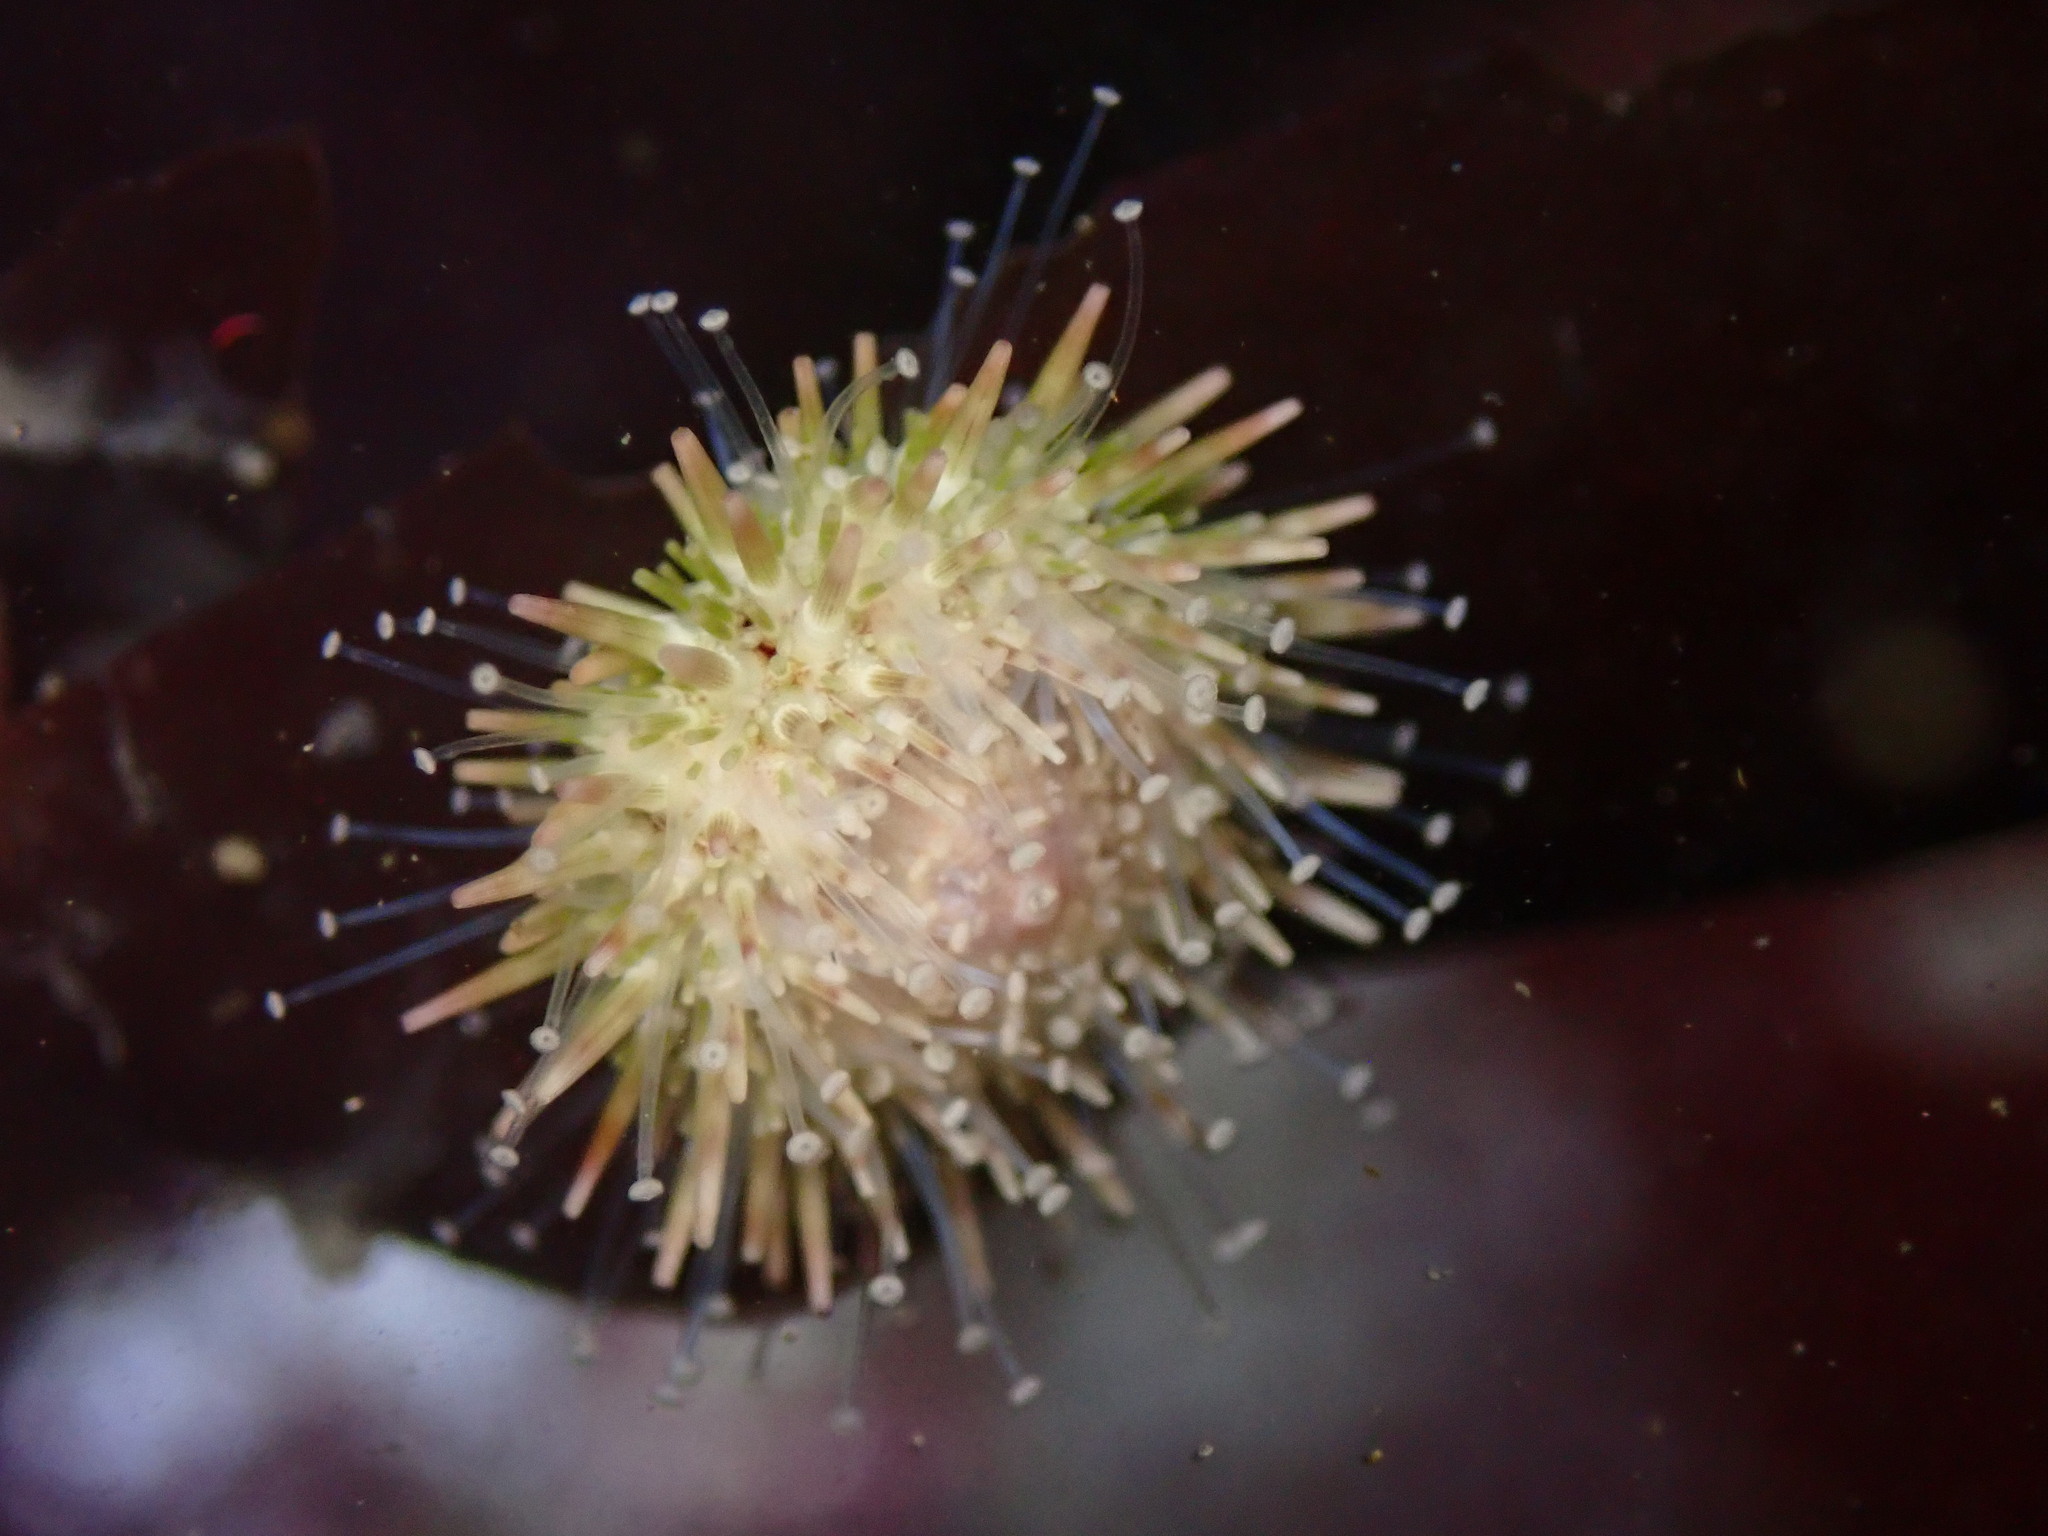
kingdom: Animalia
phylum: Echinodermata
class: Echinoidea
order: Camarodonta
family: Strongylocentrotidae
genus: Strongylocentrotus
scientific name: Strongylocentrotus purpuratus
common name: Purple sea urchin
